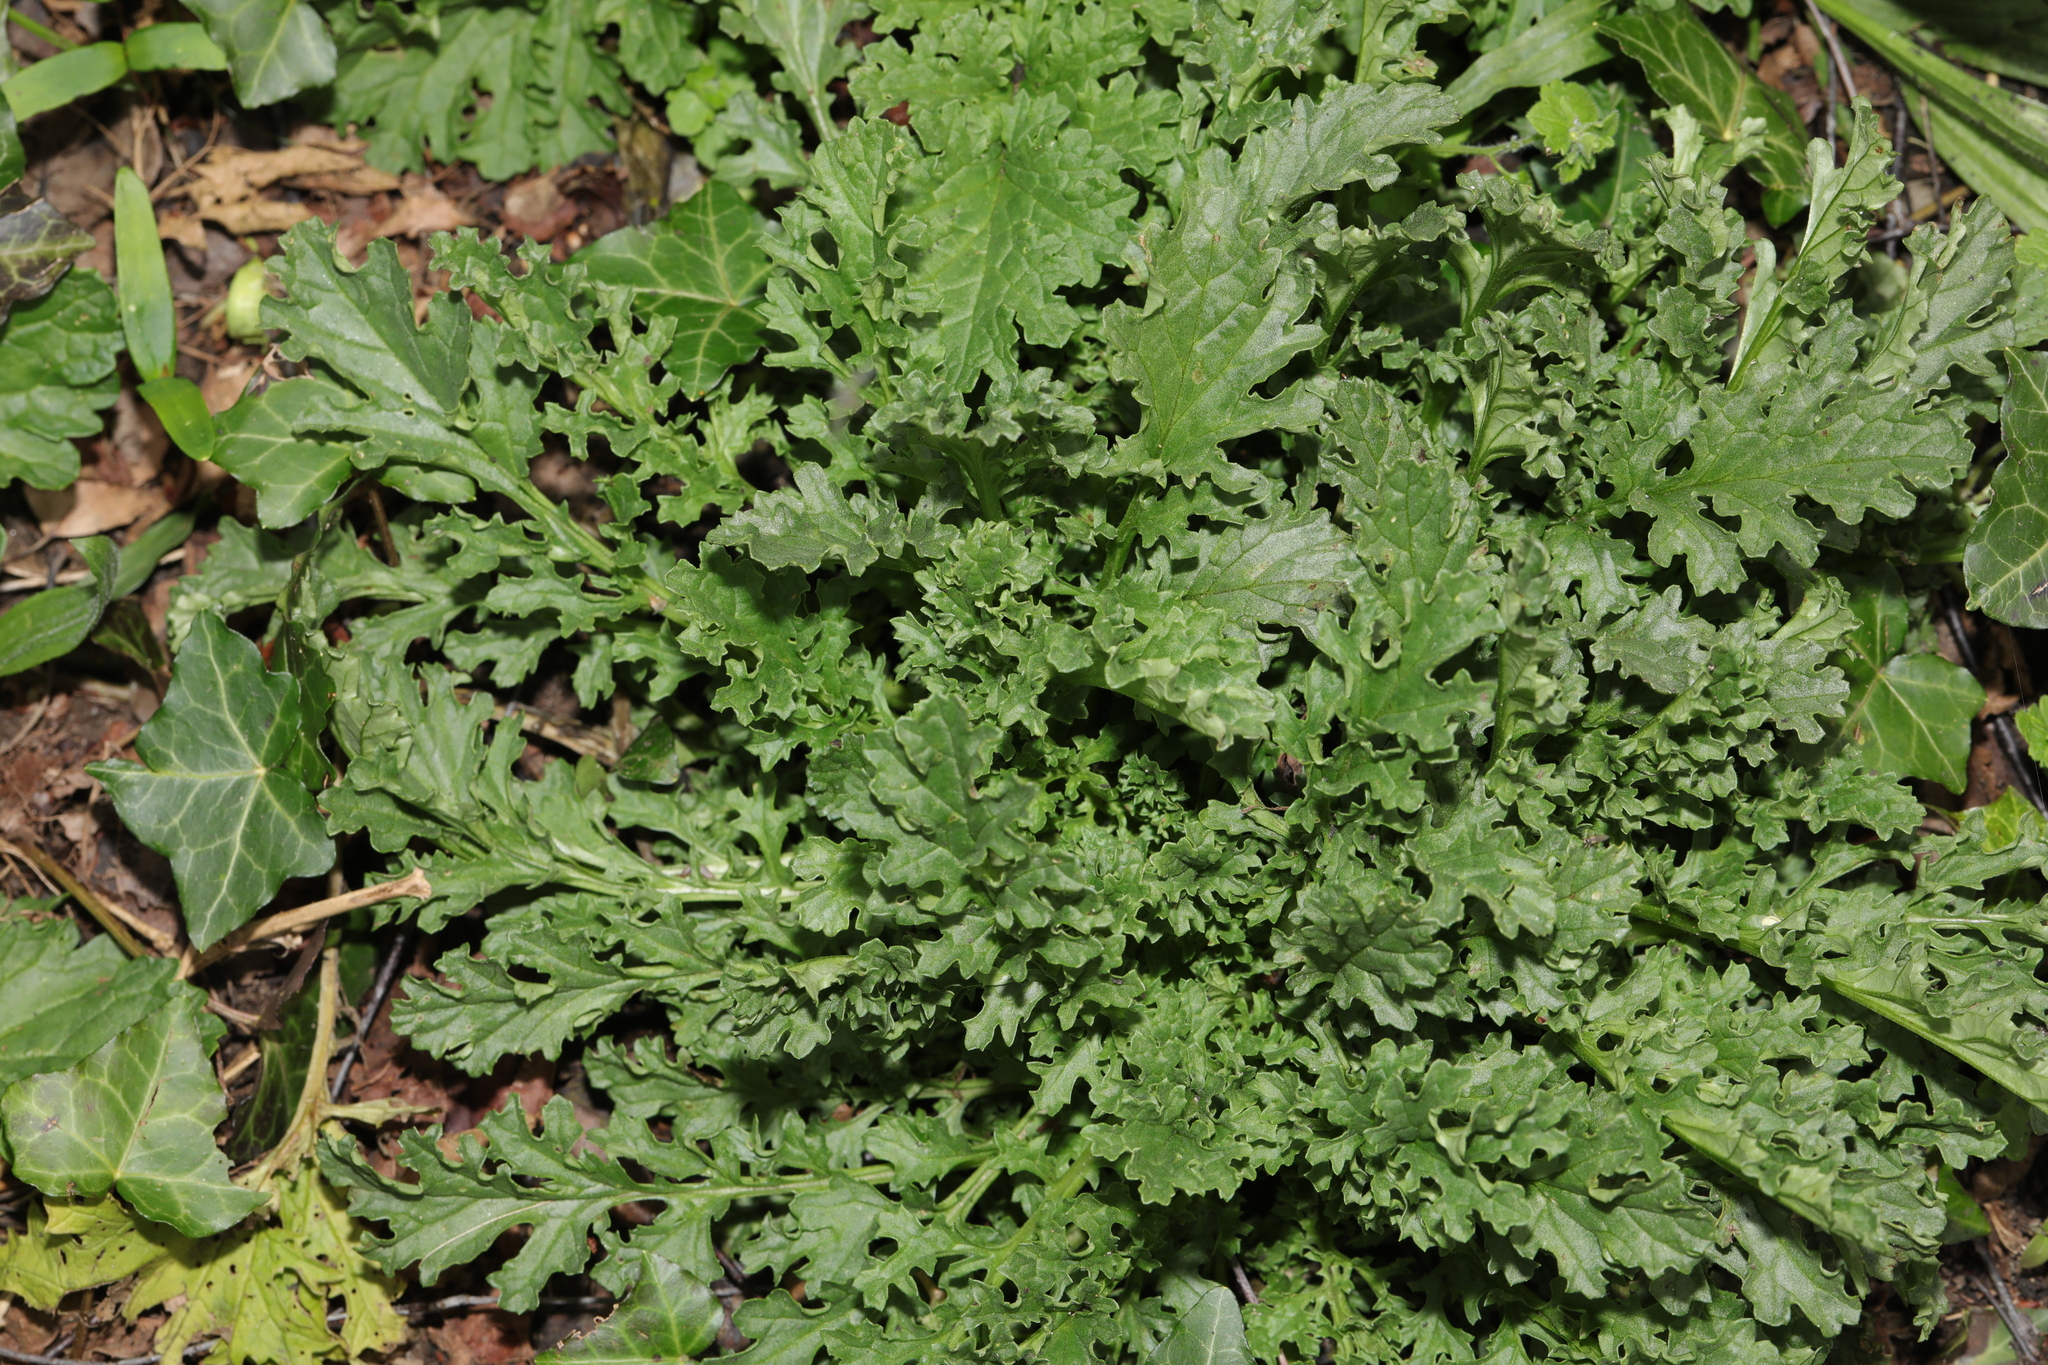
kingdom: Plantae
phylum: Tracheophyta
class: Magnoliopsida
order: Asterales
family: Asteraceae
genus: Jacobaea
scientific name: Jacobaea vulgaris
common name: Stinking willie
